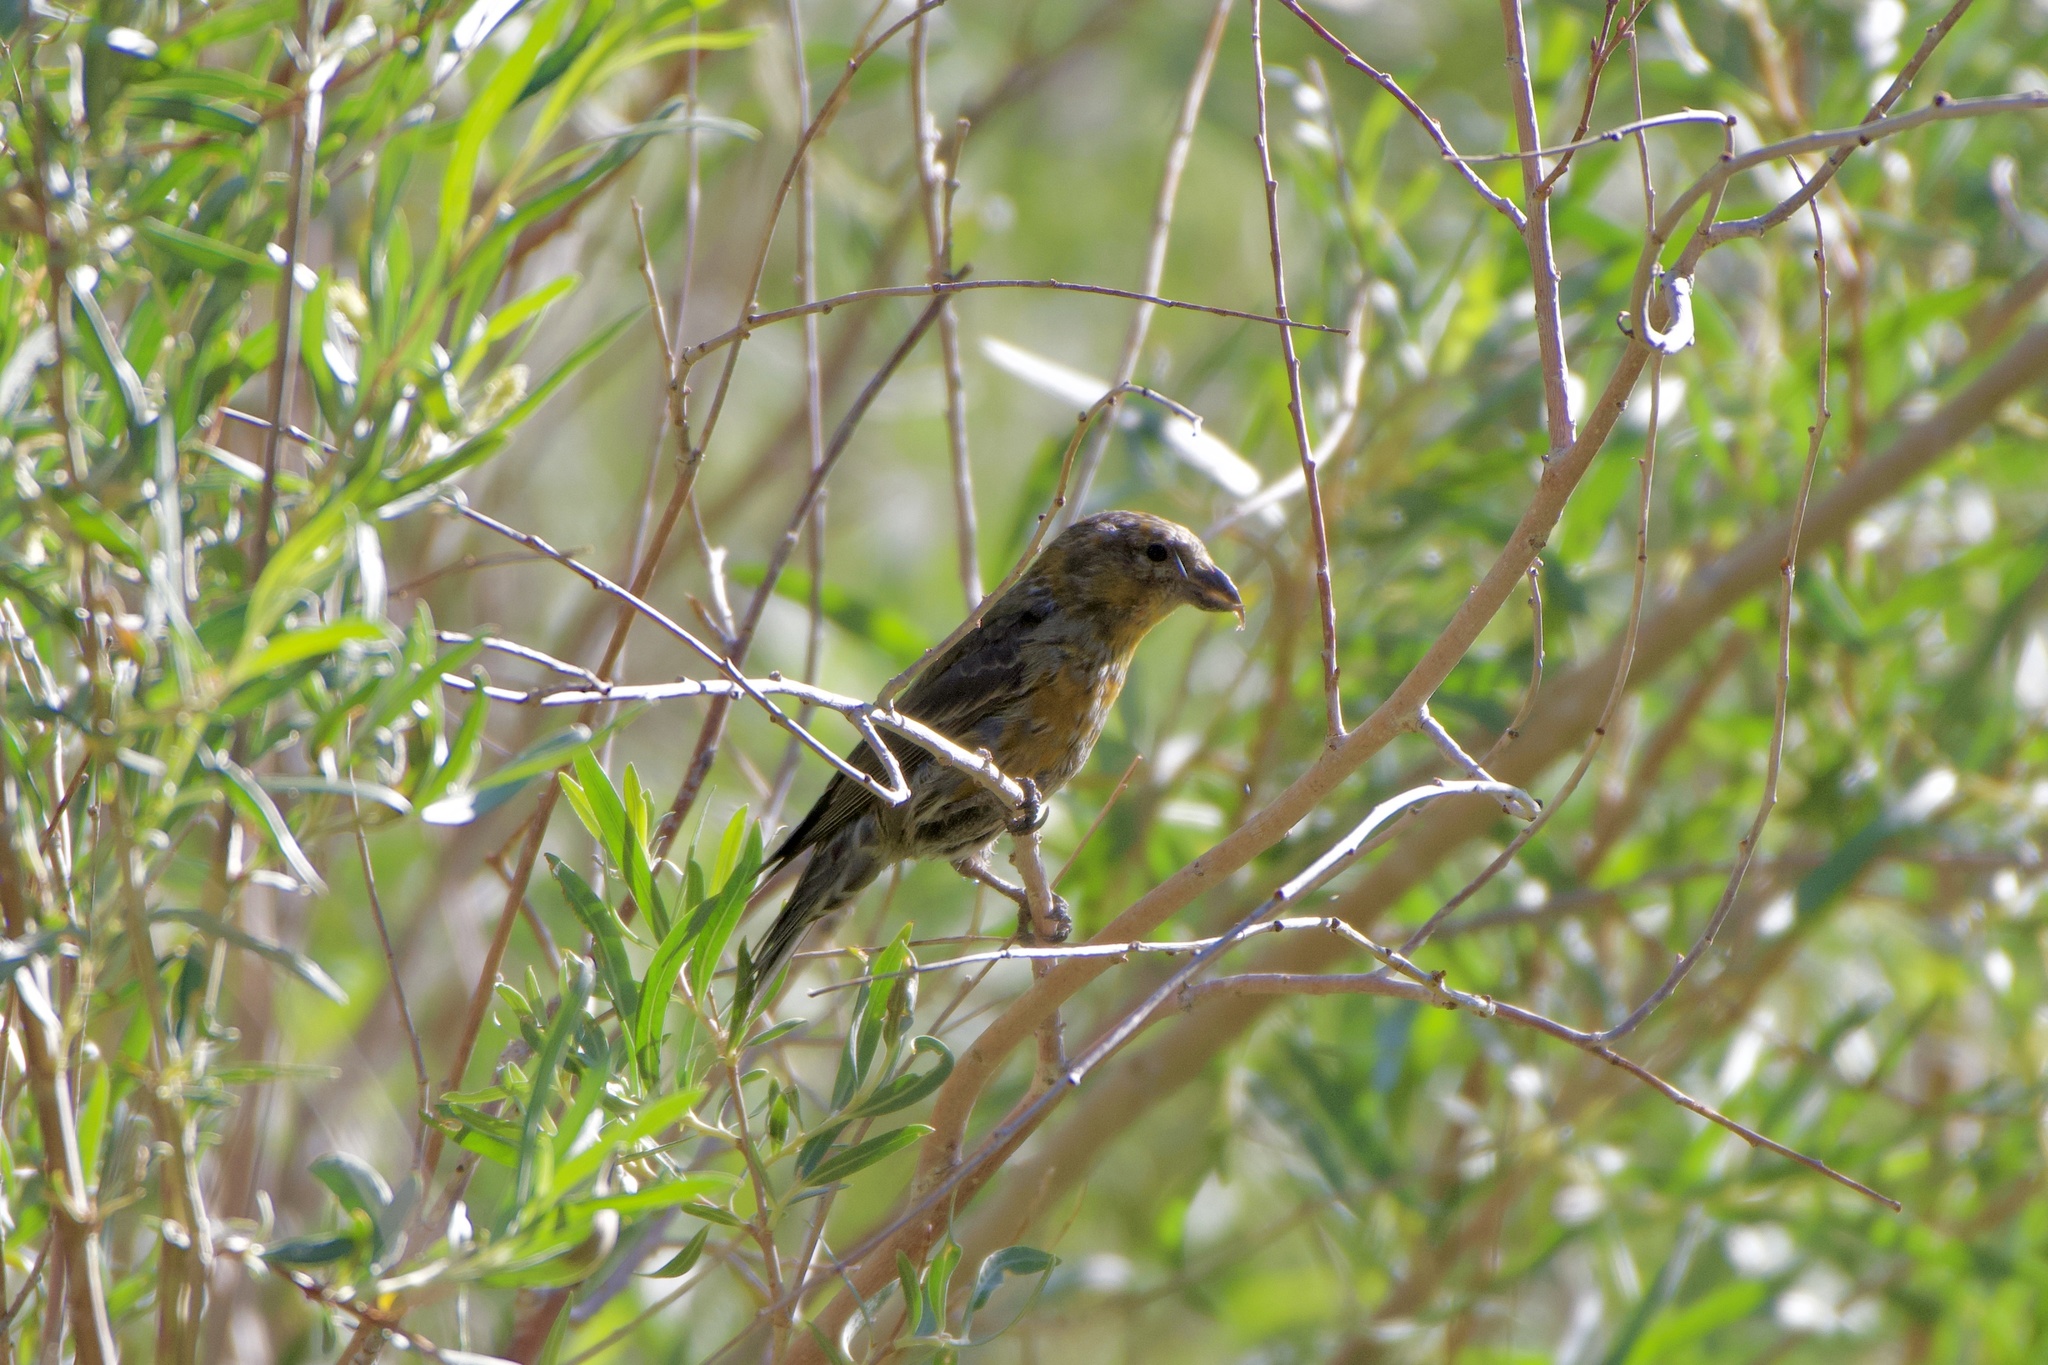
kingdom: Animalia
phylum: Chordata
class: Aves
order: Passeriformes
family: Fringillidae
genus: Loxia
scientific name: Loxia curvirostra
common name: Red crossbill
